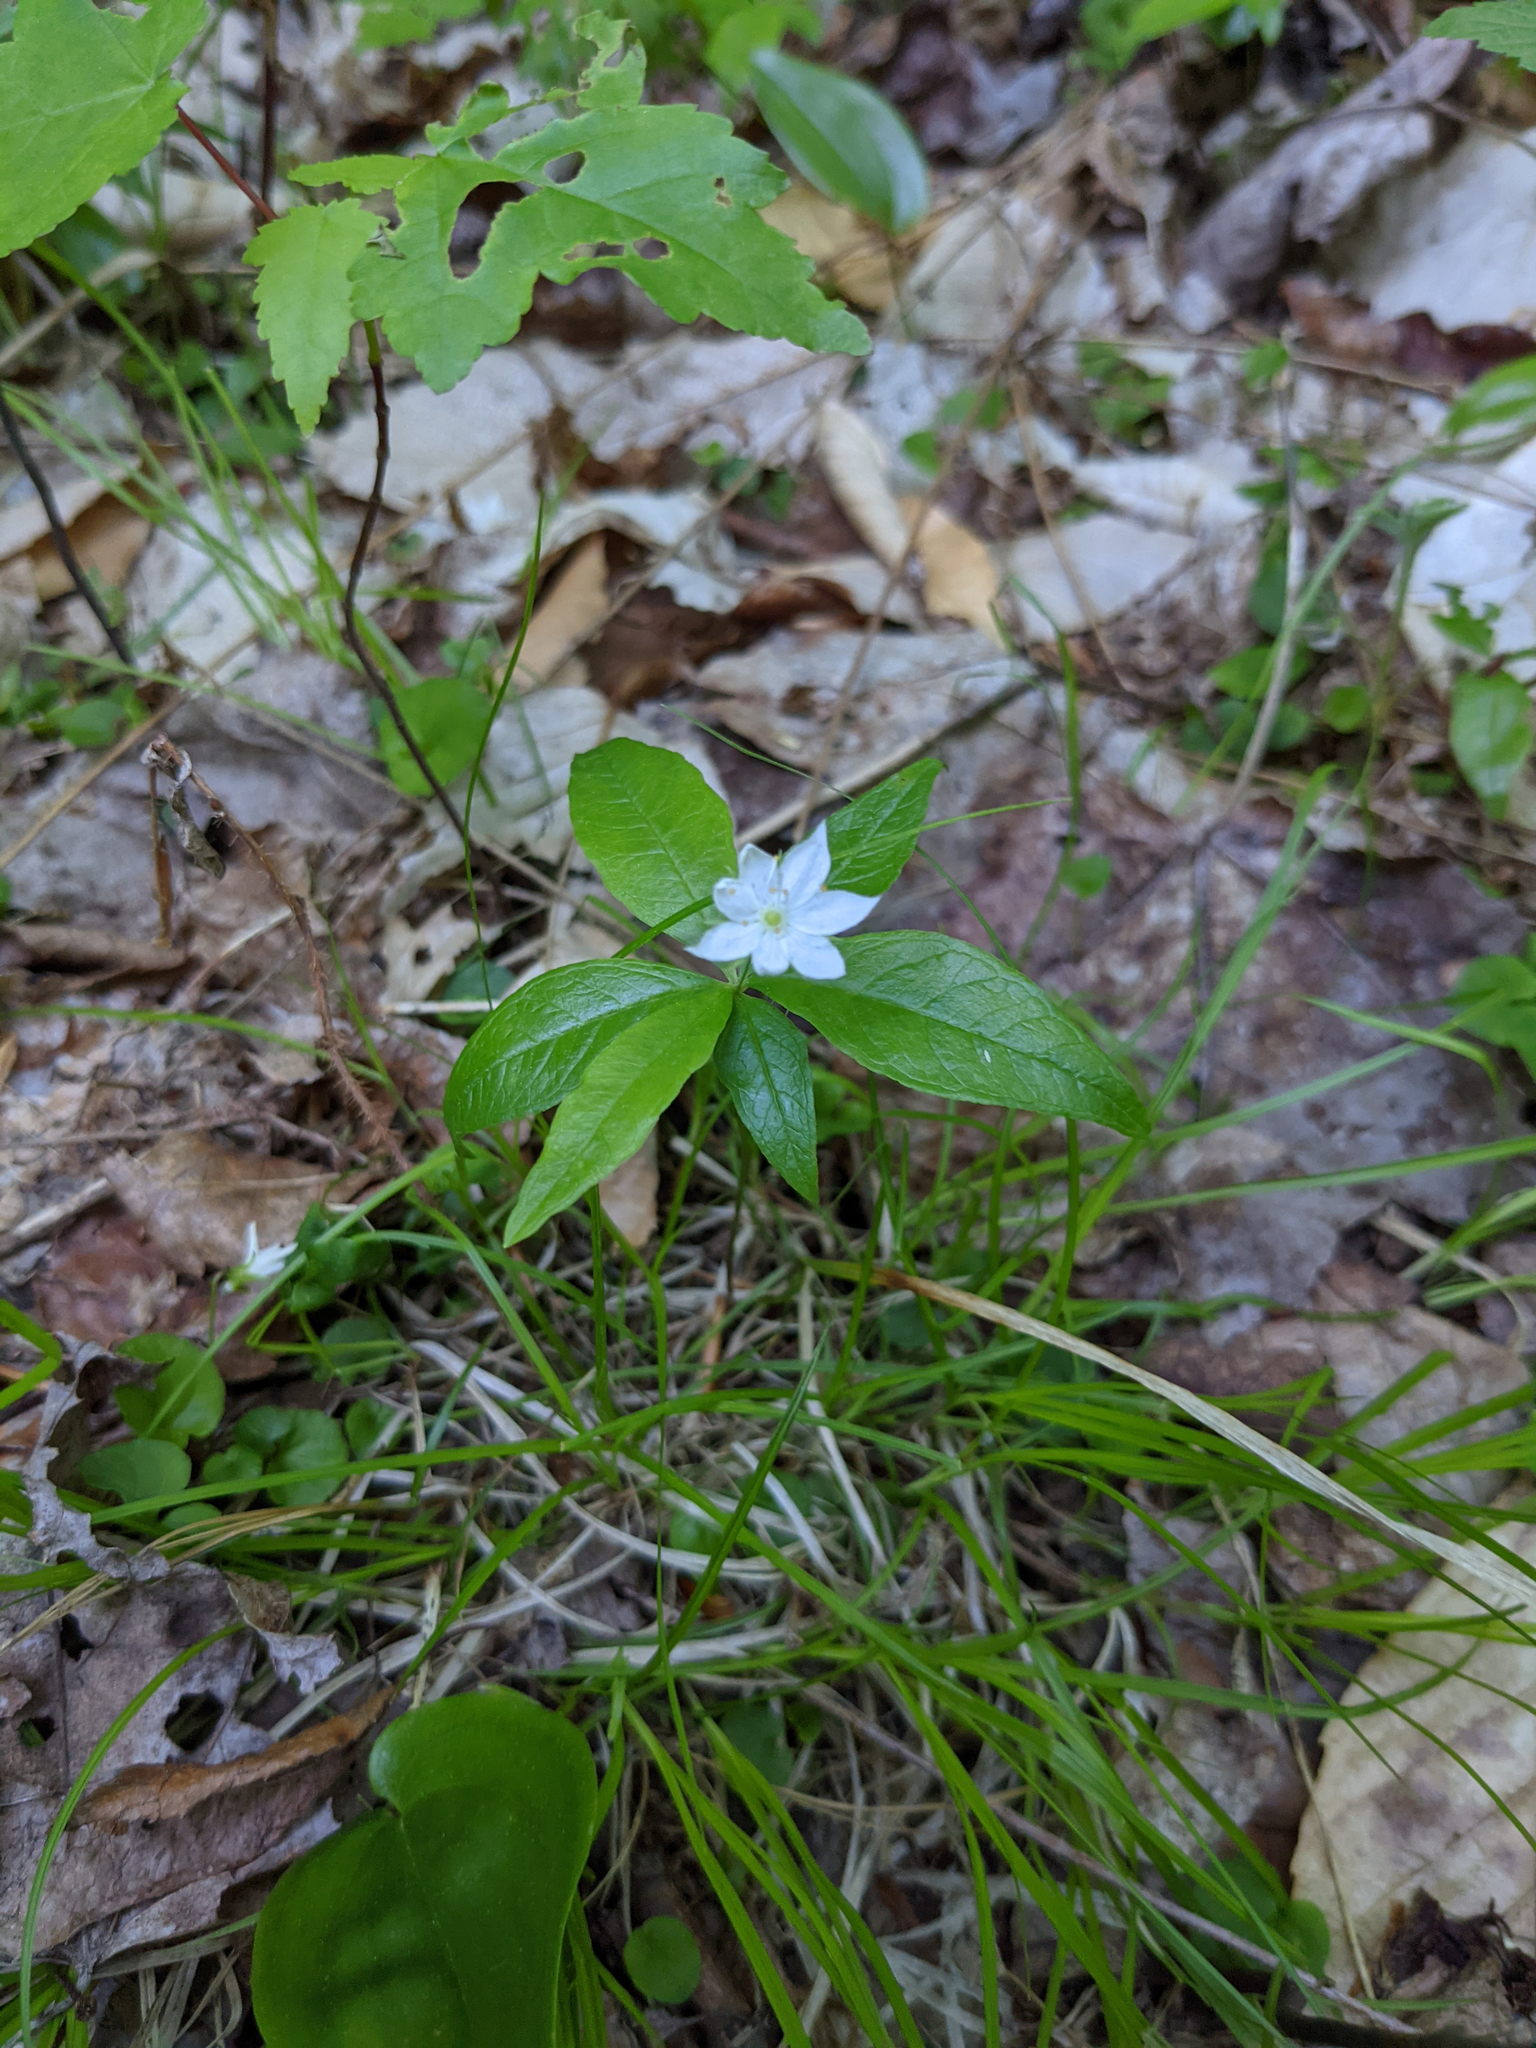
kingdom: Plantae
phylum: Tracheophyta
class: Magnoliopsida
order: Ericales
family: Primulaceae
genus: Lysimachia
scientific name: Lysimachia borealis
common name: American starflower
